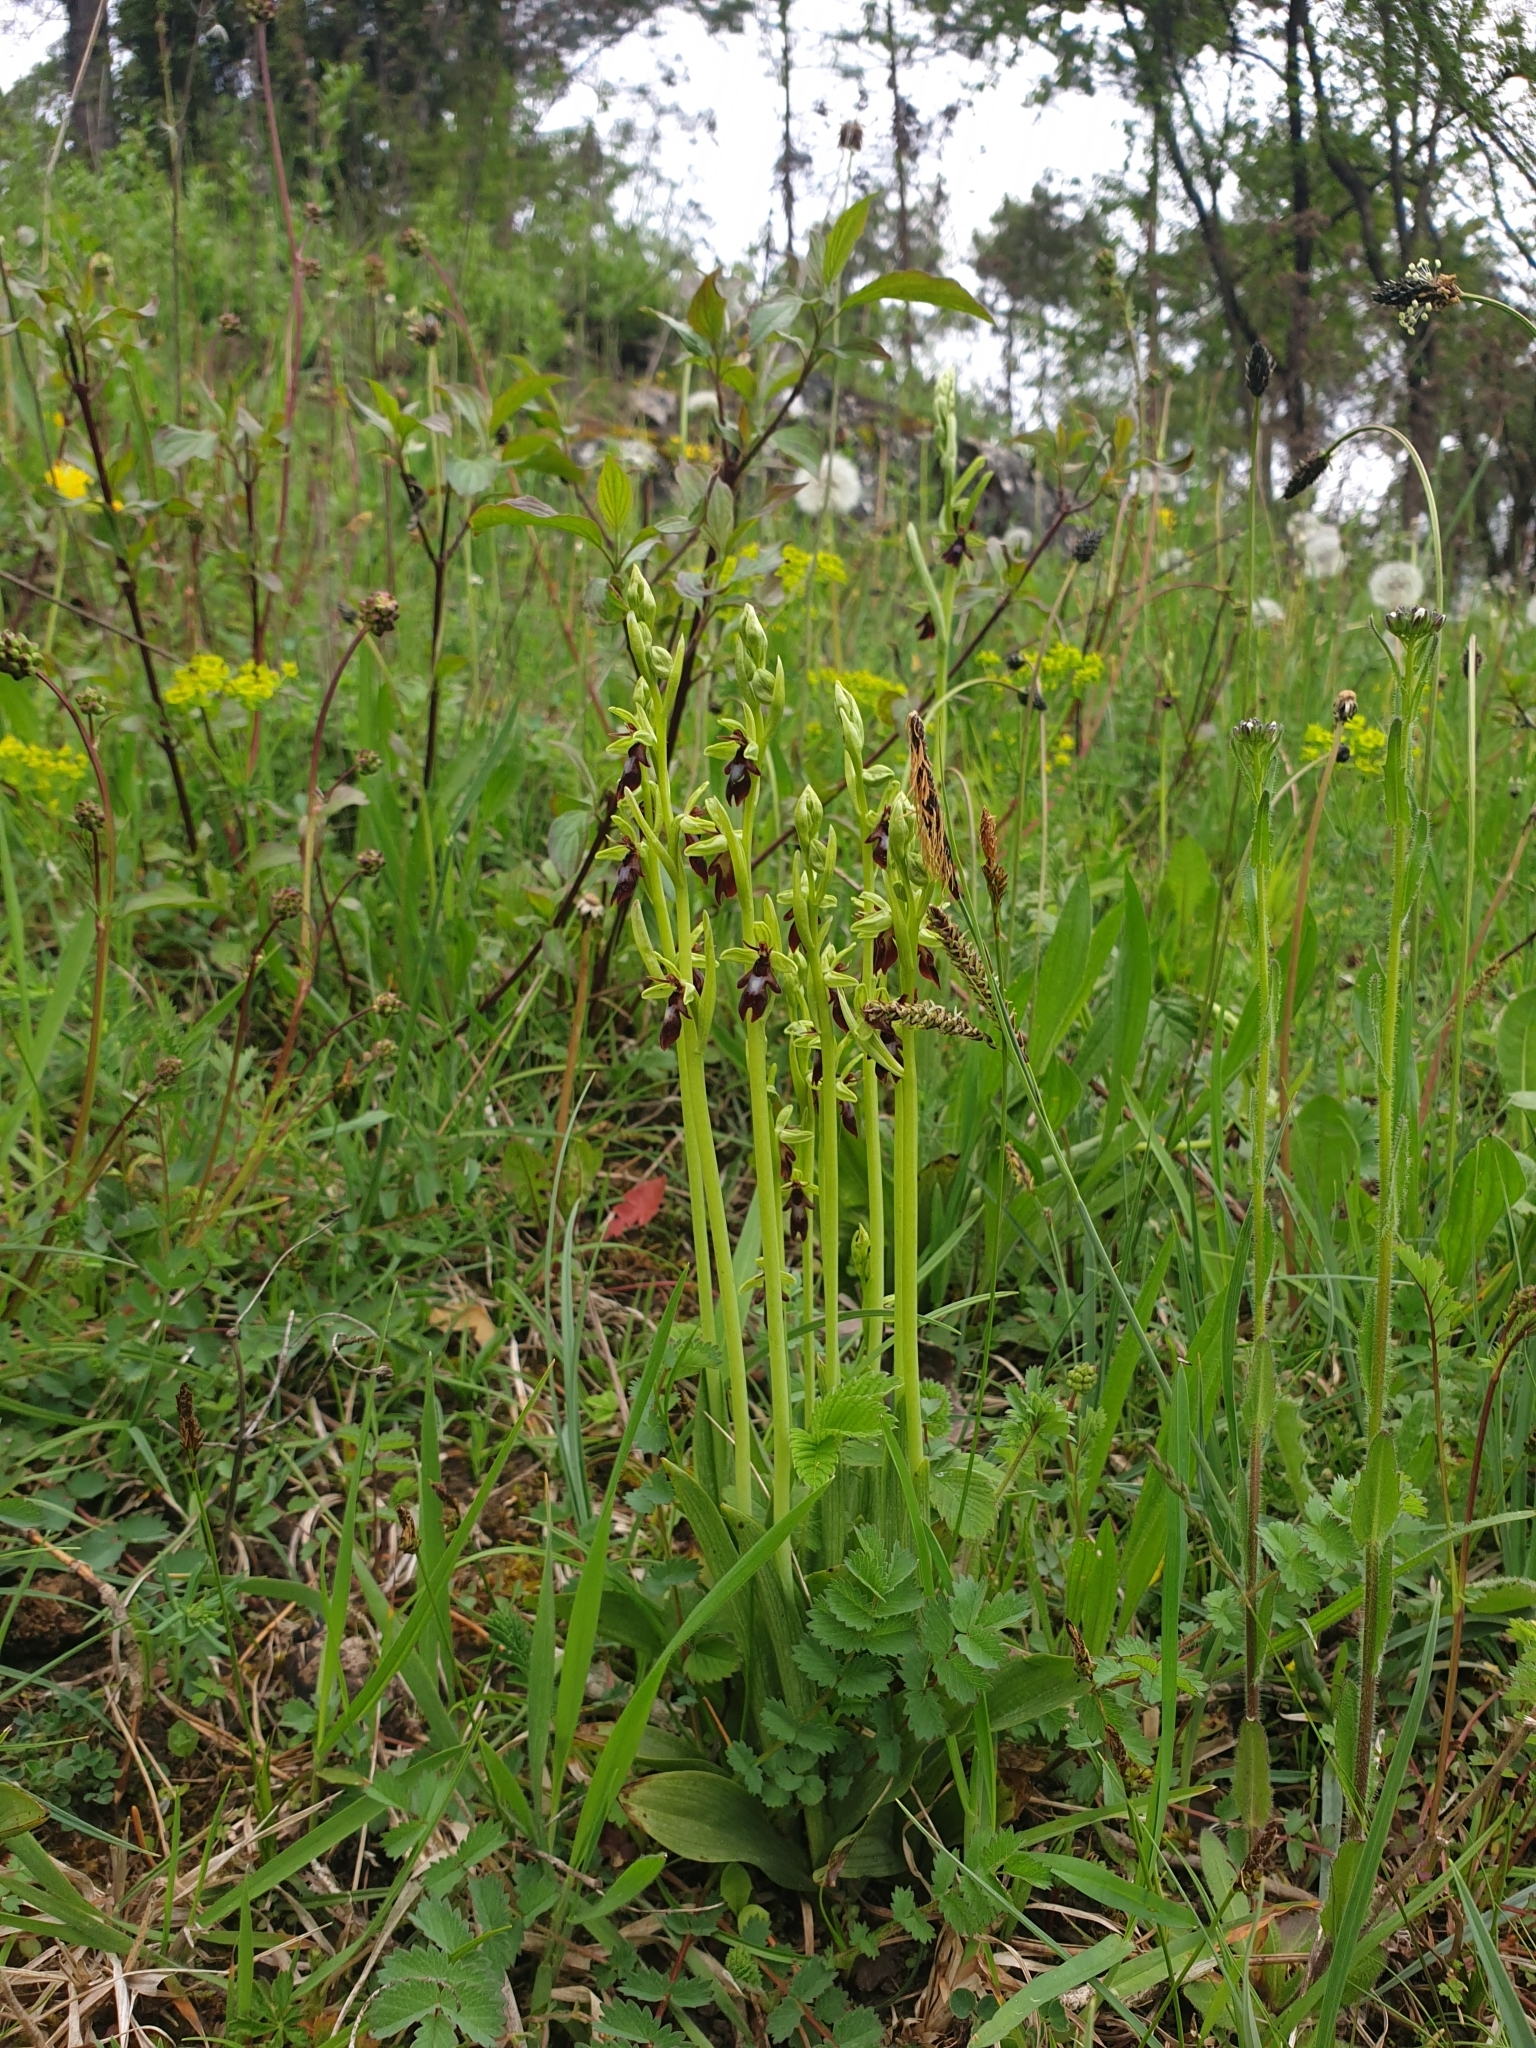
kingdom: Plantae
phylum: Tracheophyta
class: Liliopsida
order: Asparagales
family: Orchidaceae
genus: Ophrys
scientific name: Ophrys insectifera
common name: Fly orchid
